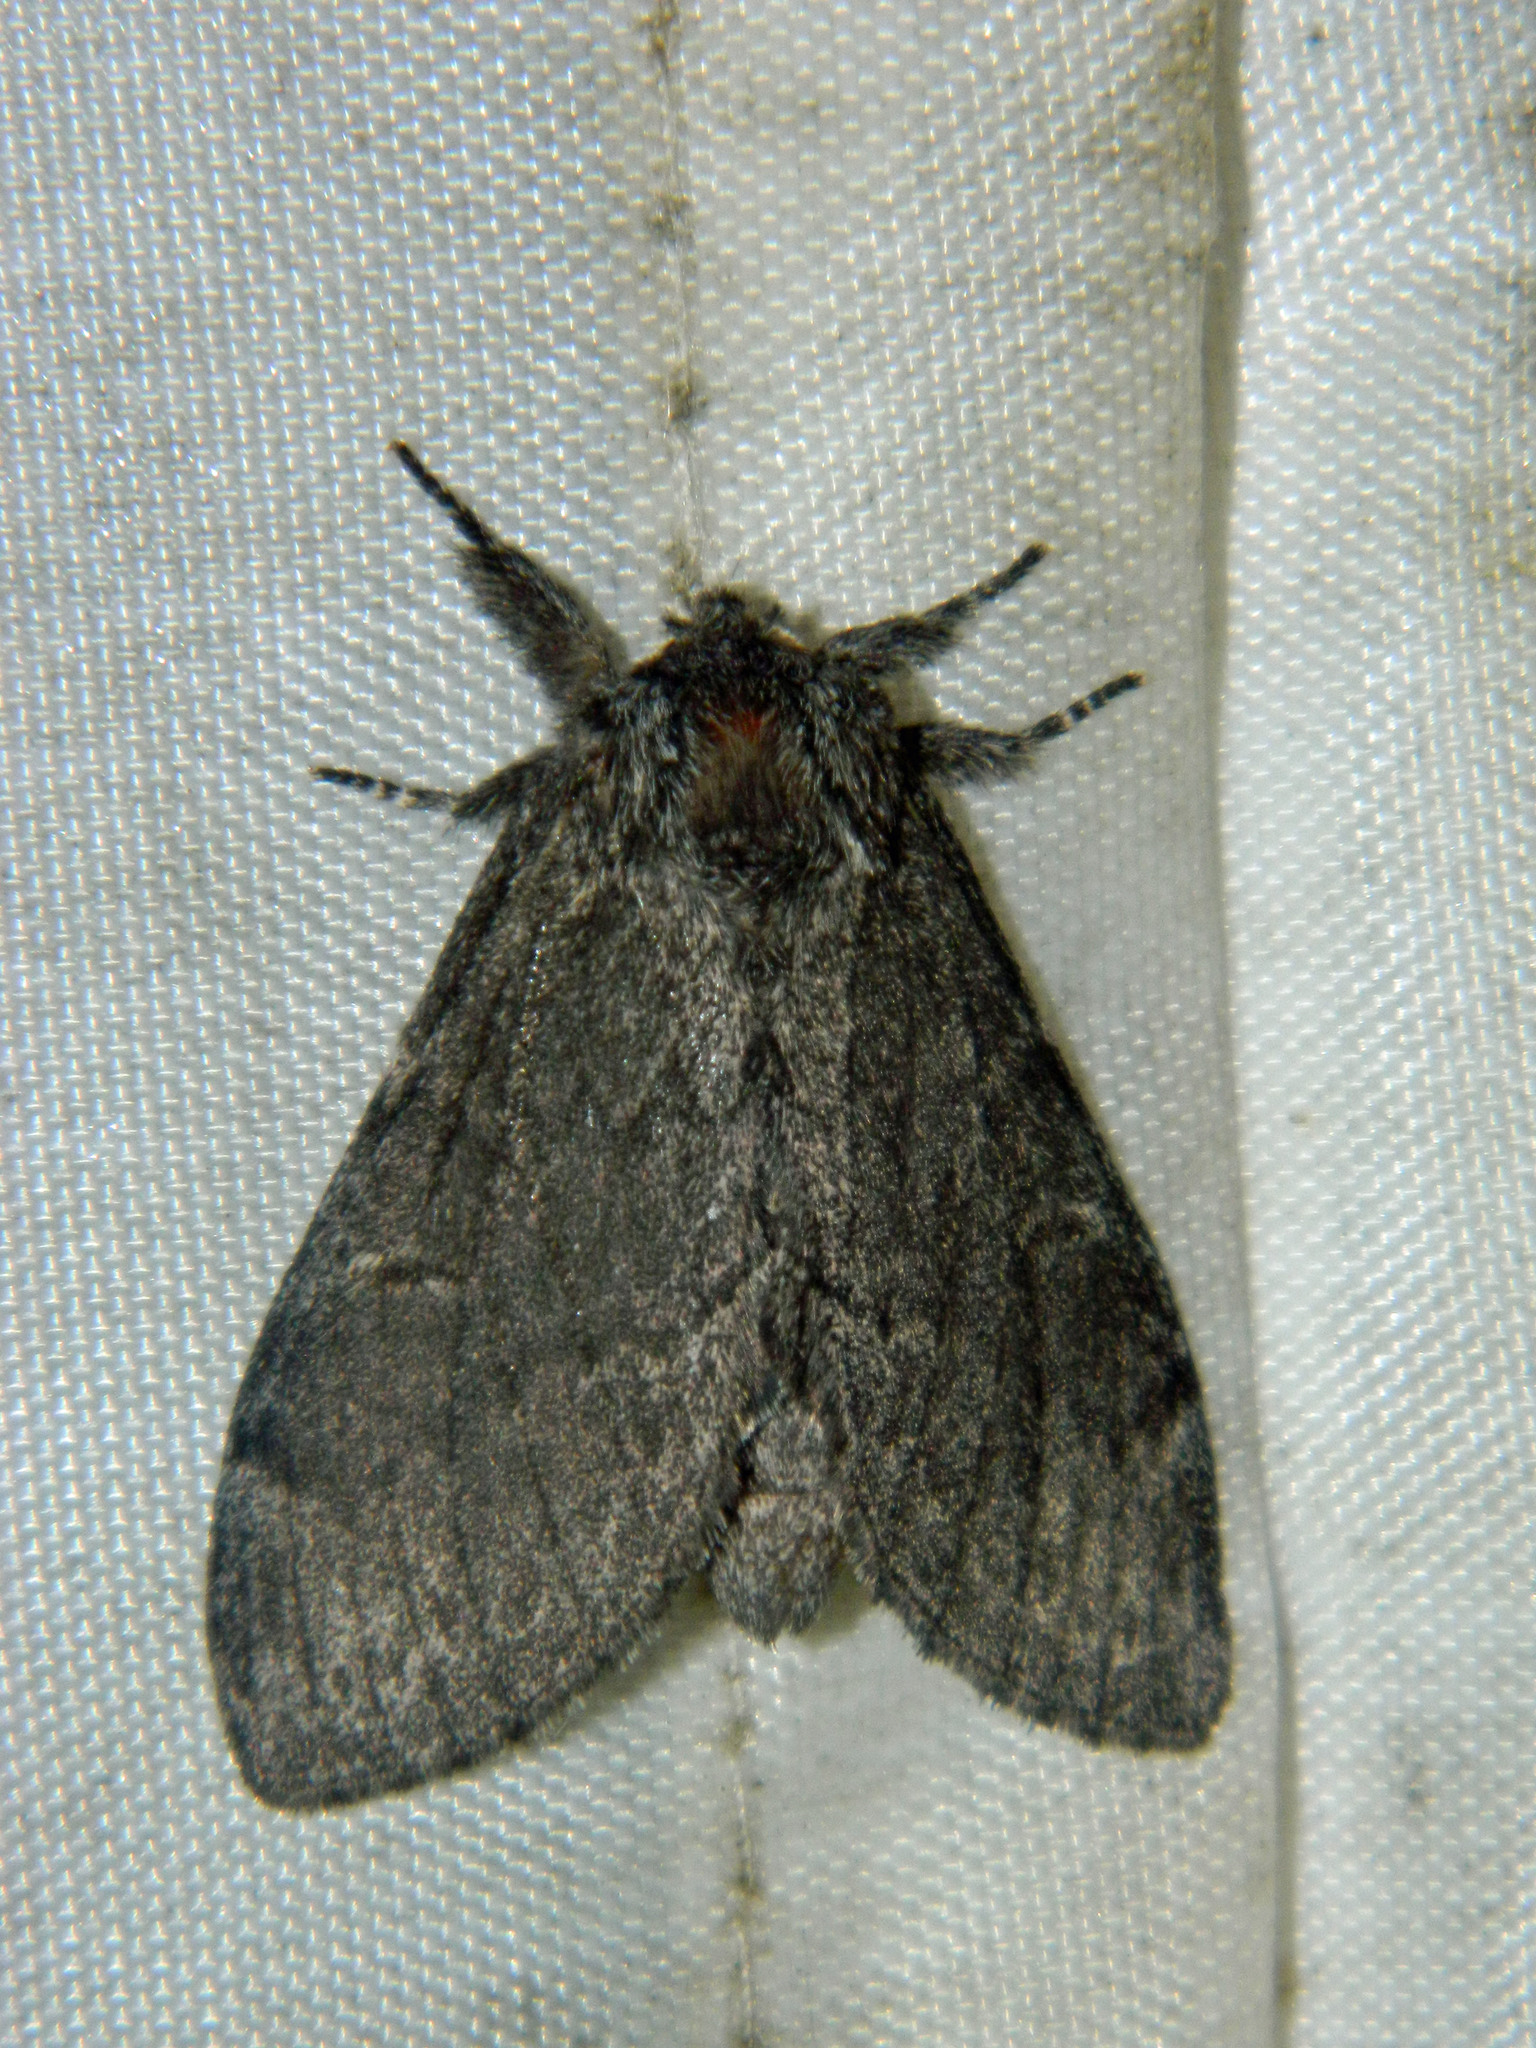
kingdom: Animalia
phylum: Arthropoda
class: Insecta
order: Lepidoptera
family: Notodontidae
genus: Notodonta
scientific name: Notodonta torva
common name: Large dark prominent
